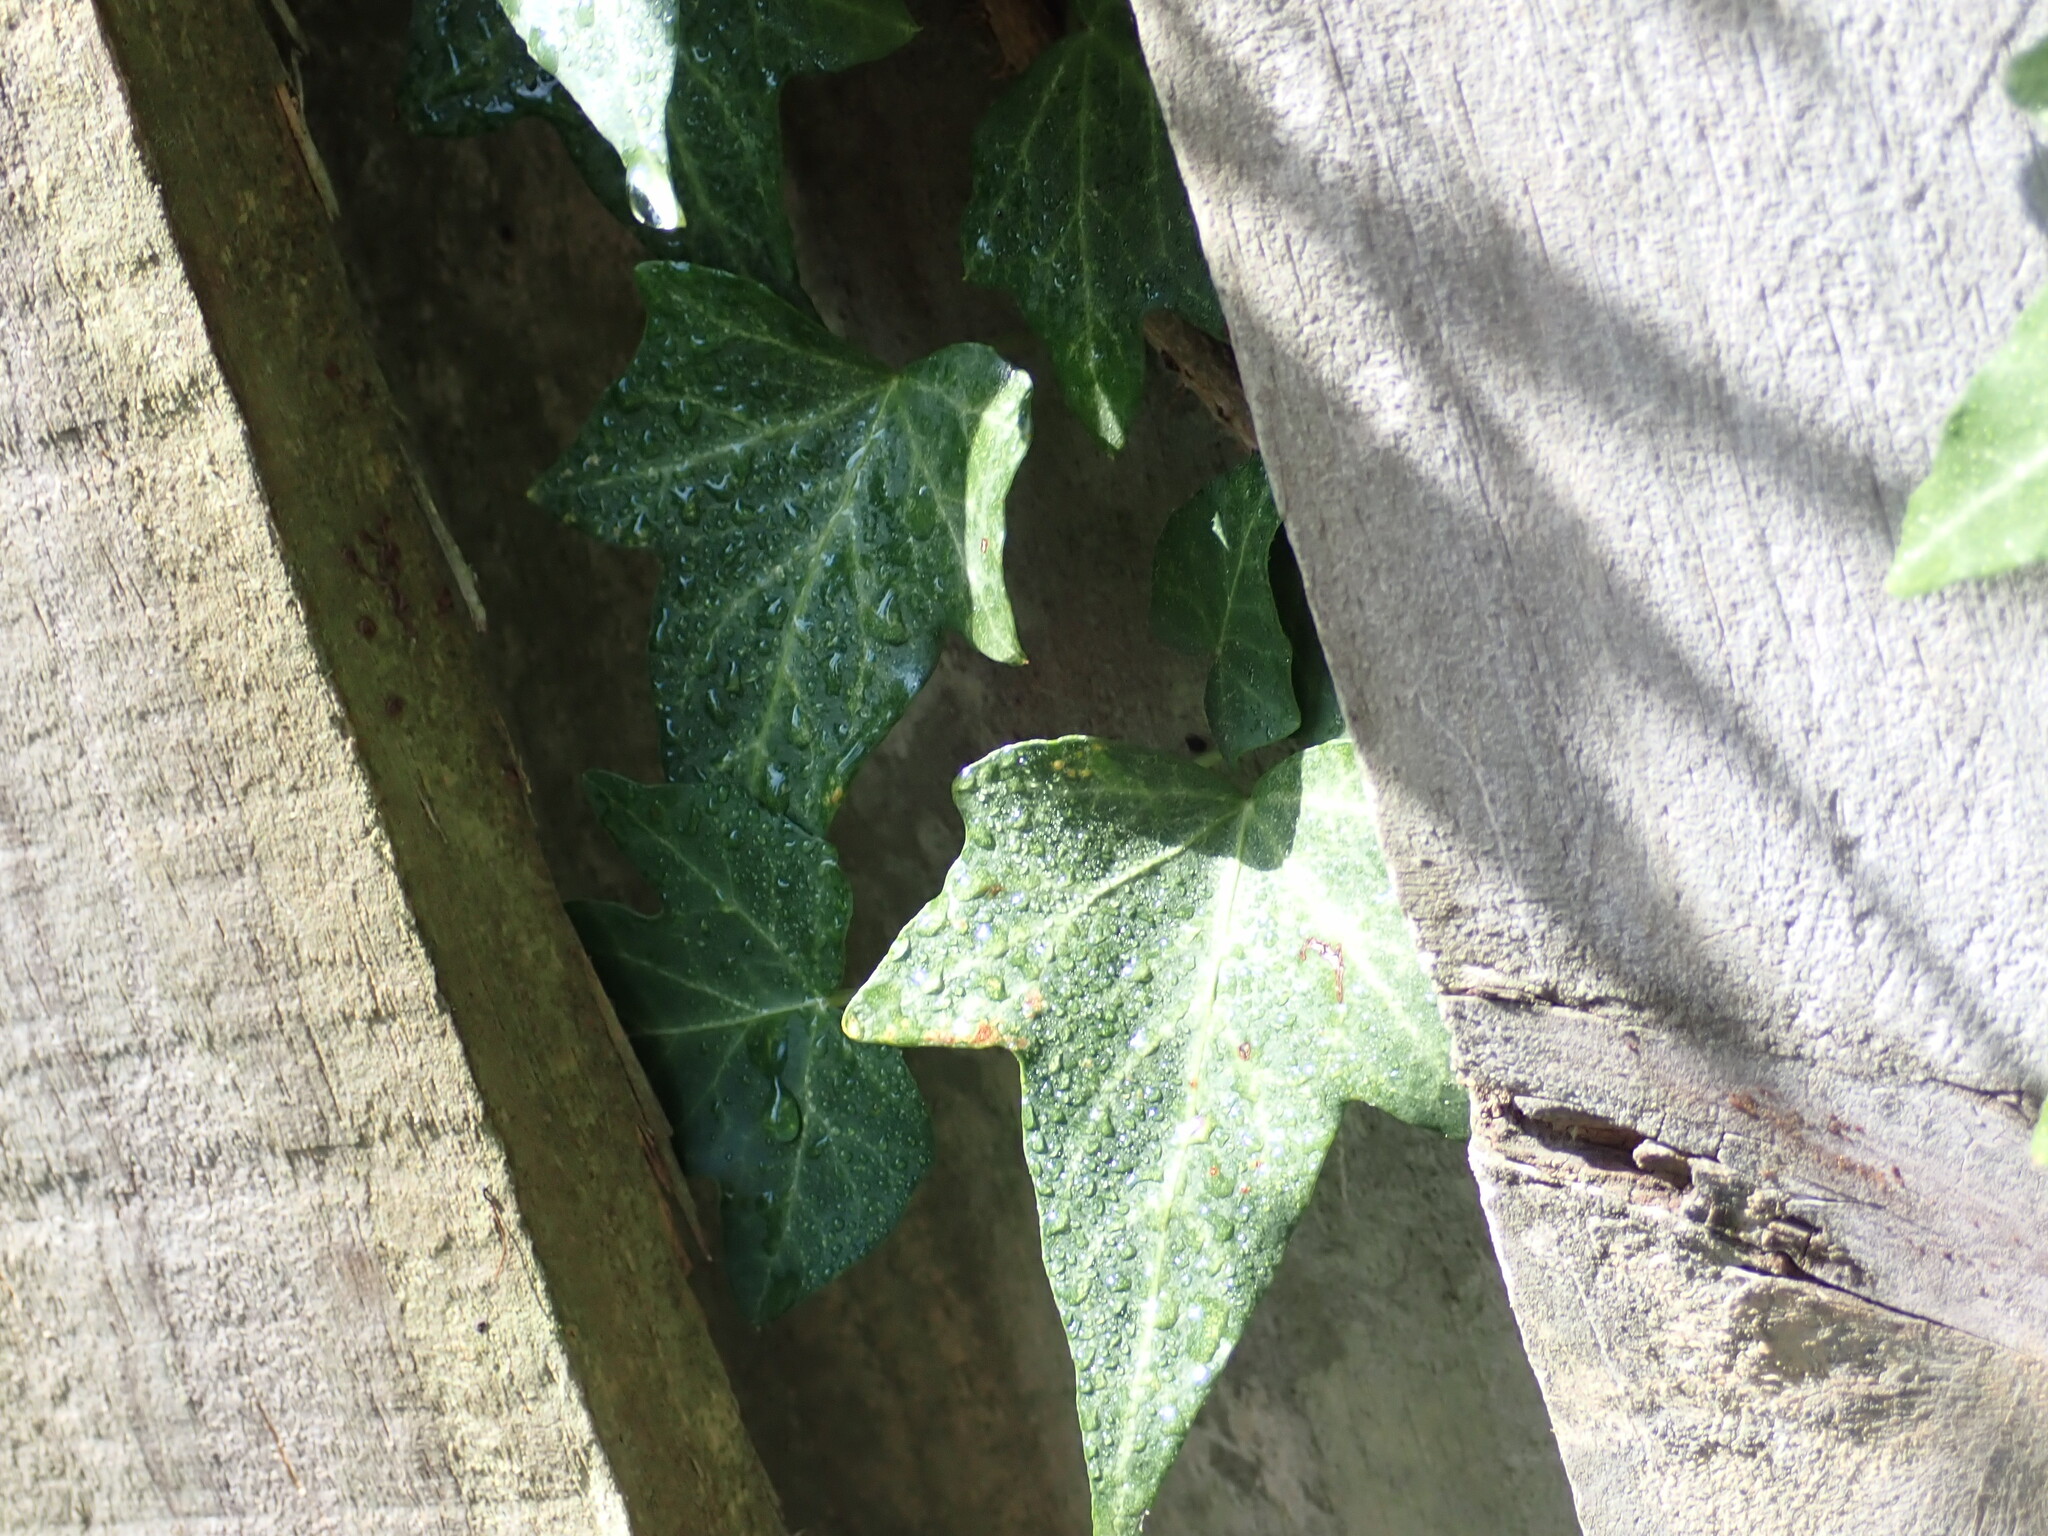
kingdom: Plantae
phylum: Tracheophyta
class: Magnoliopsida
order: Apiales
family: Araliaceae
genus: Hedera
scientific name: Hedera helix
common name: Ivy
